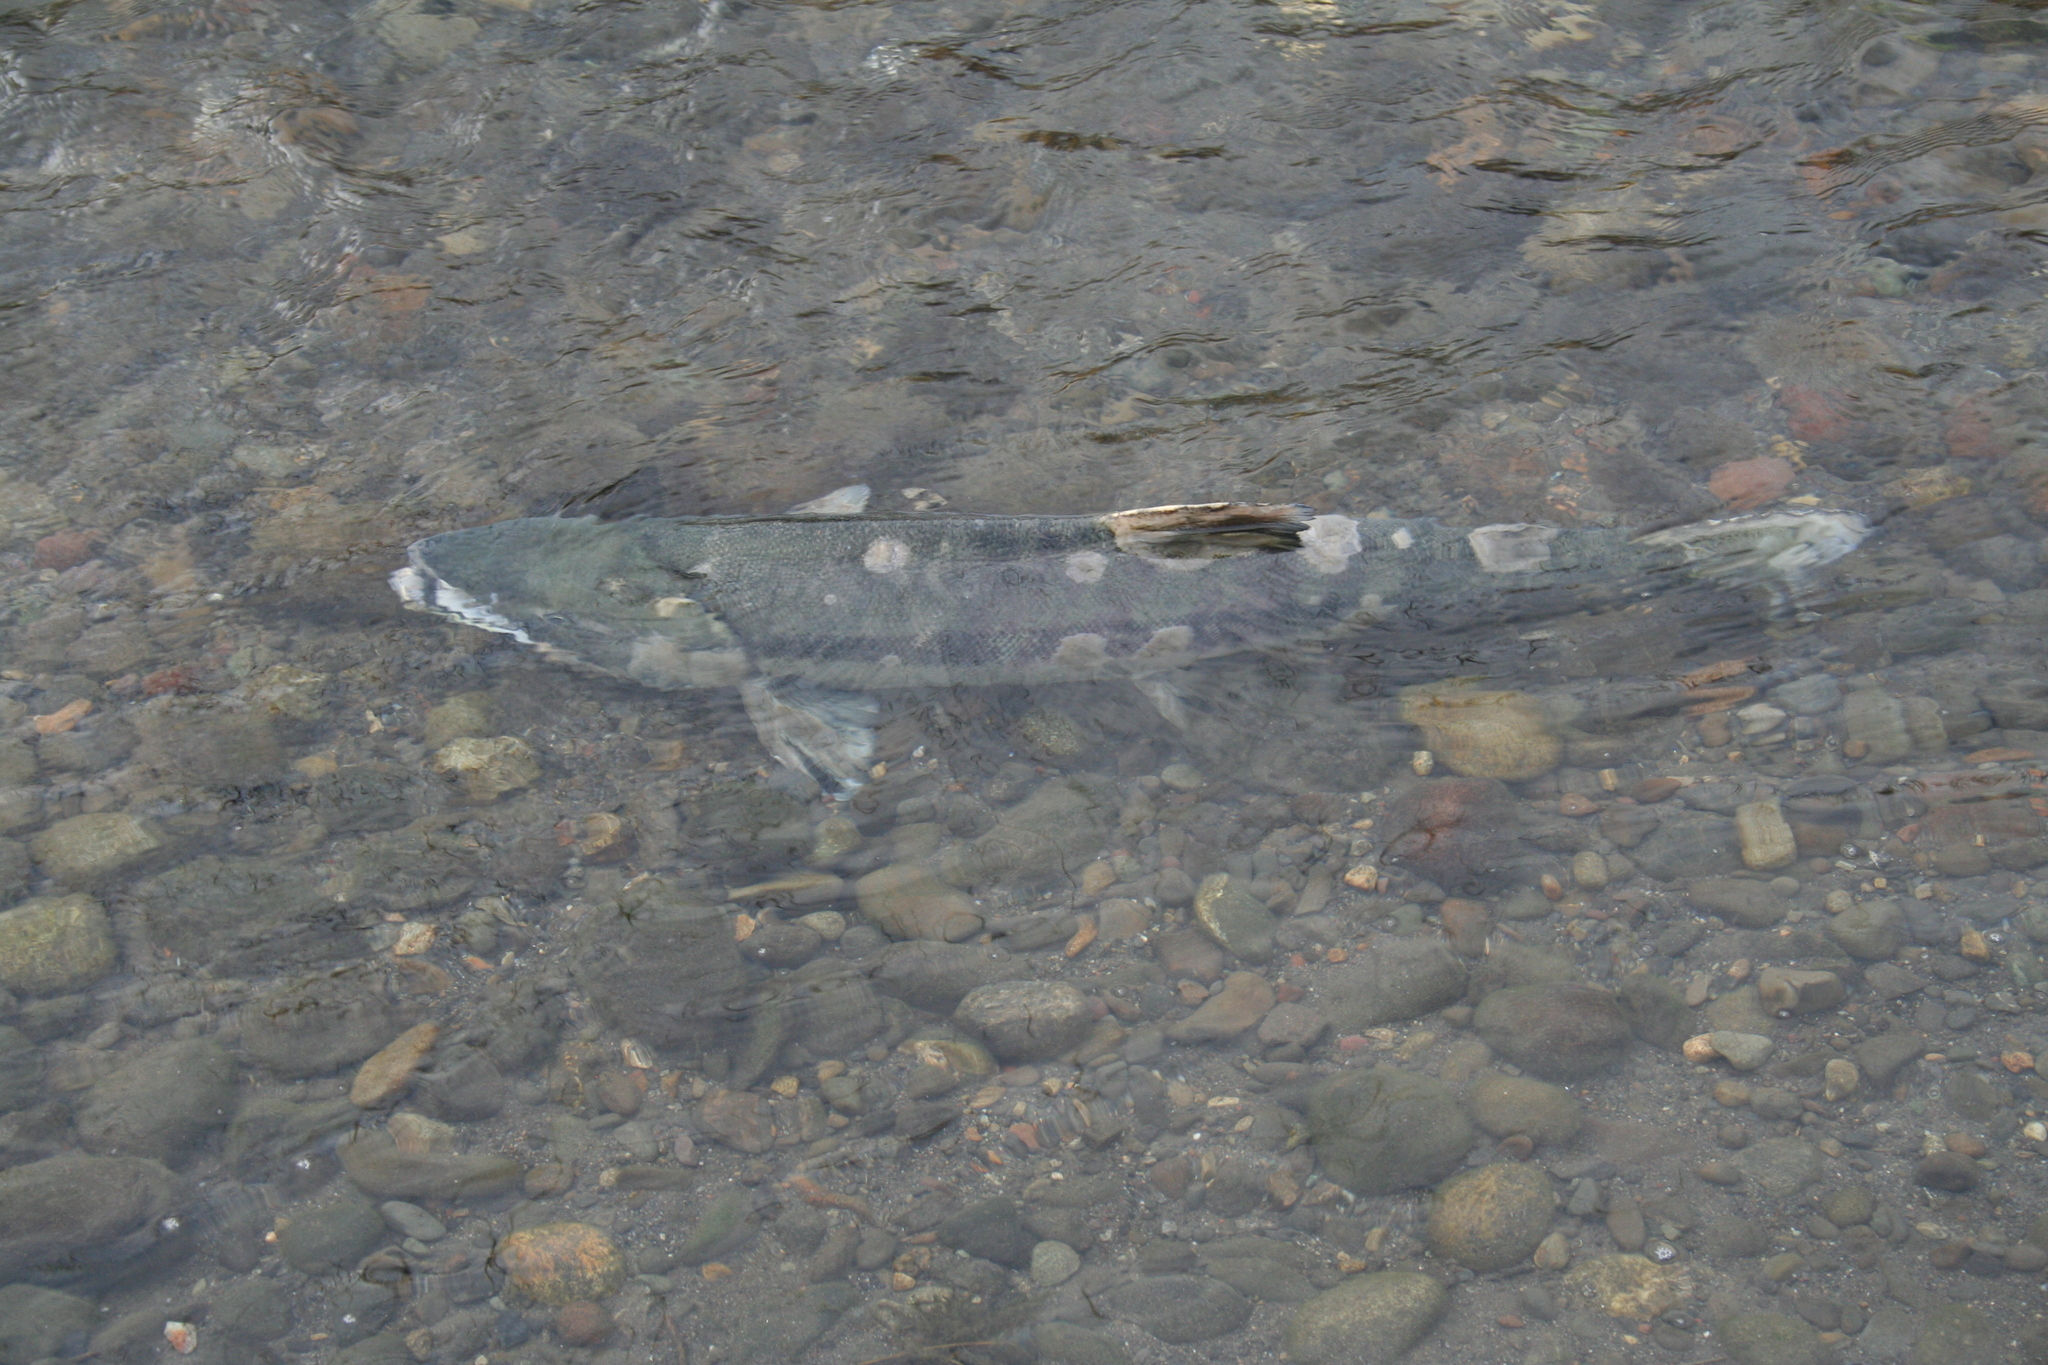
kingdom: Animalia
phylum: Chordata
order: Salmoniformes
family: Salmonidae
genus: Oncorhynchus
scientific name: Oncorhynchus keta
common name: Chum salmon
